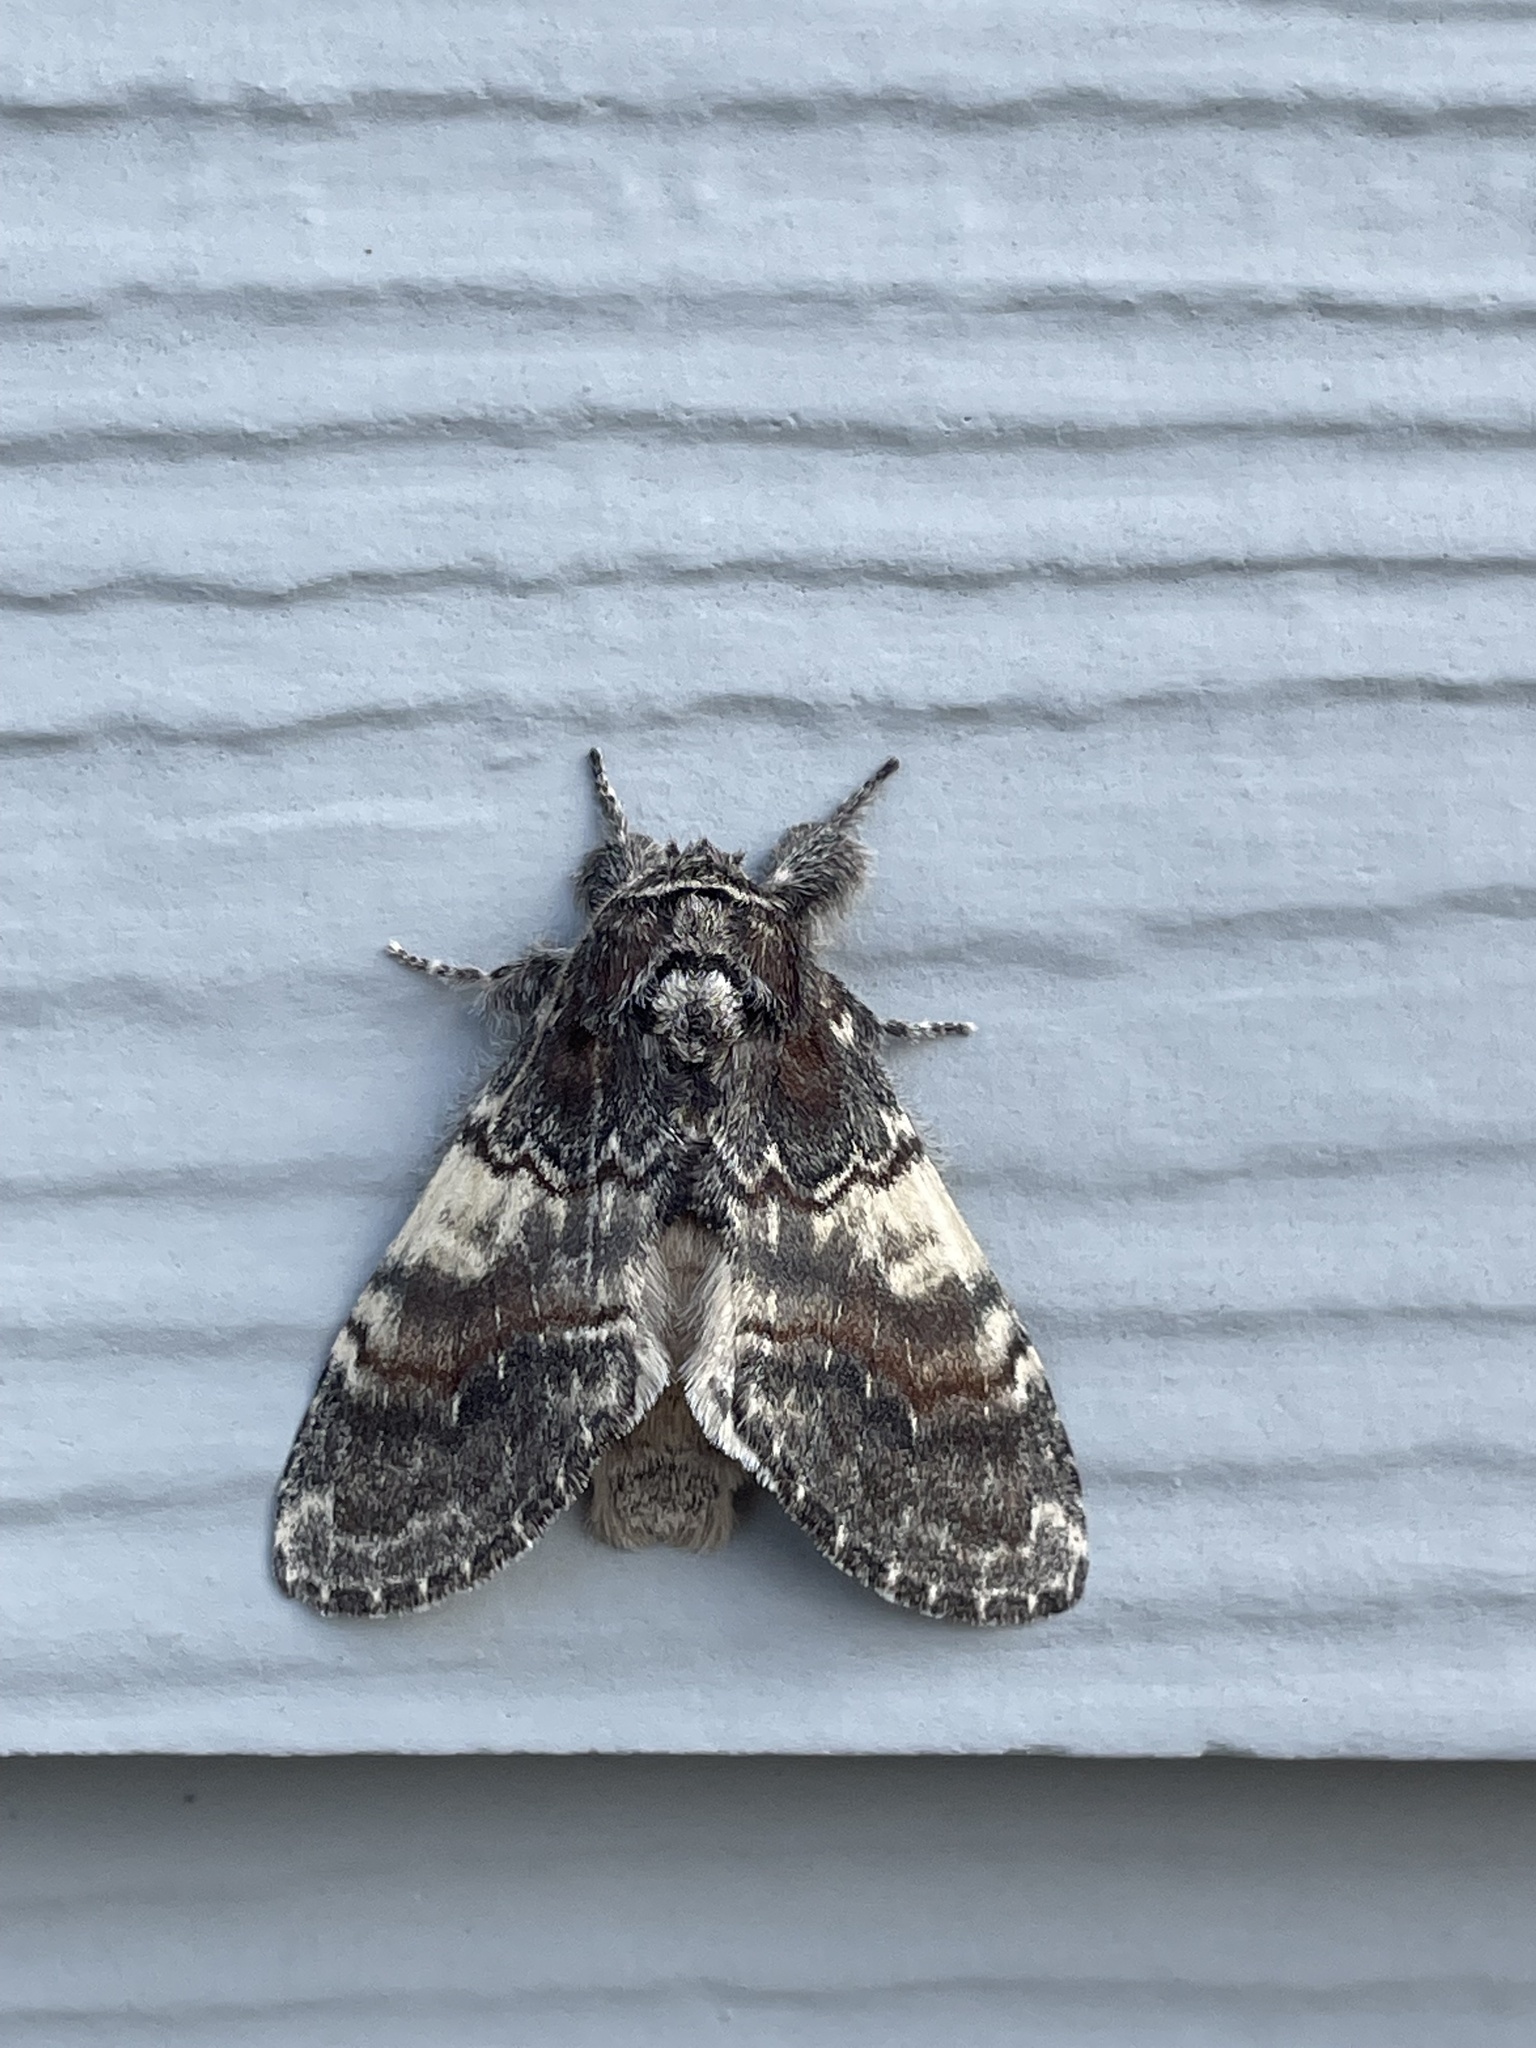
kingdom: Animalia
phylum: Arthropoda
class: Insecta
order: Lepidoptera
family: Notodontidae
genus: Peridea
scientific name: Peridea ferruginea
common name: Chocolate prominent
